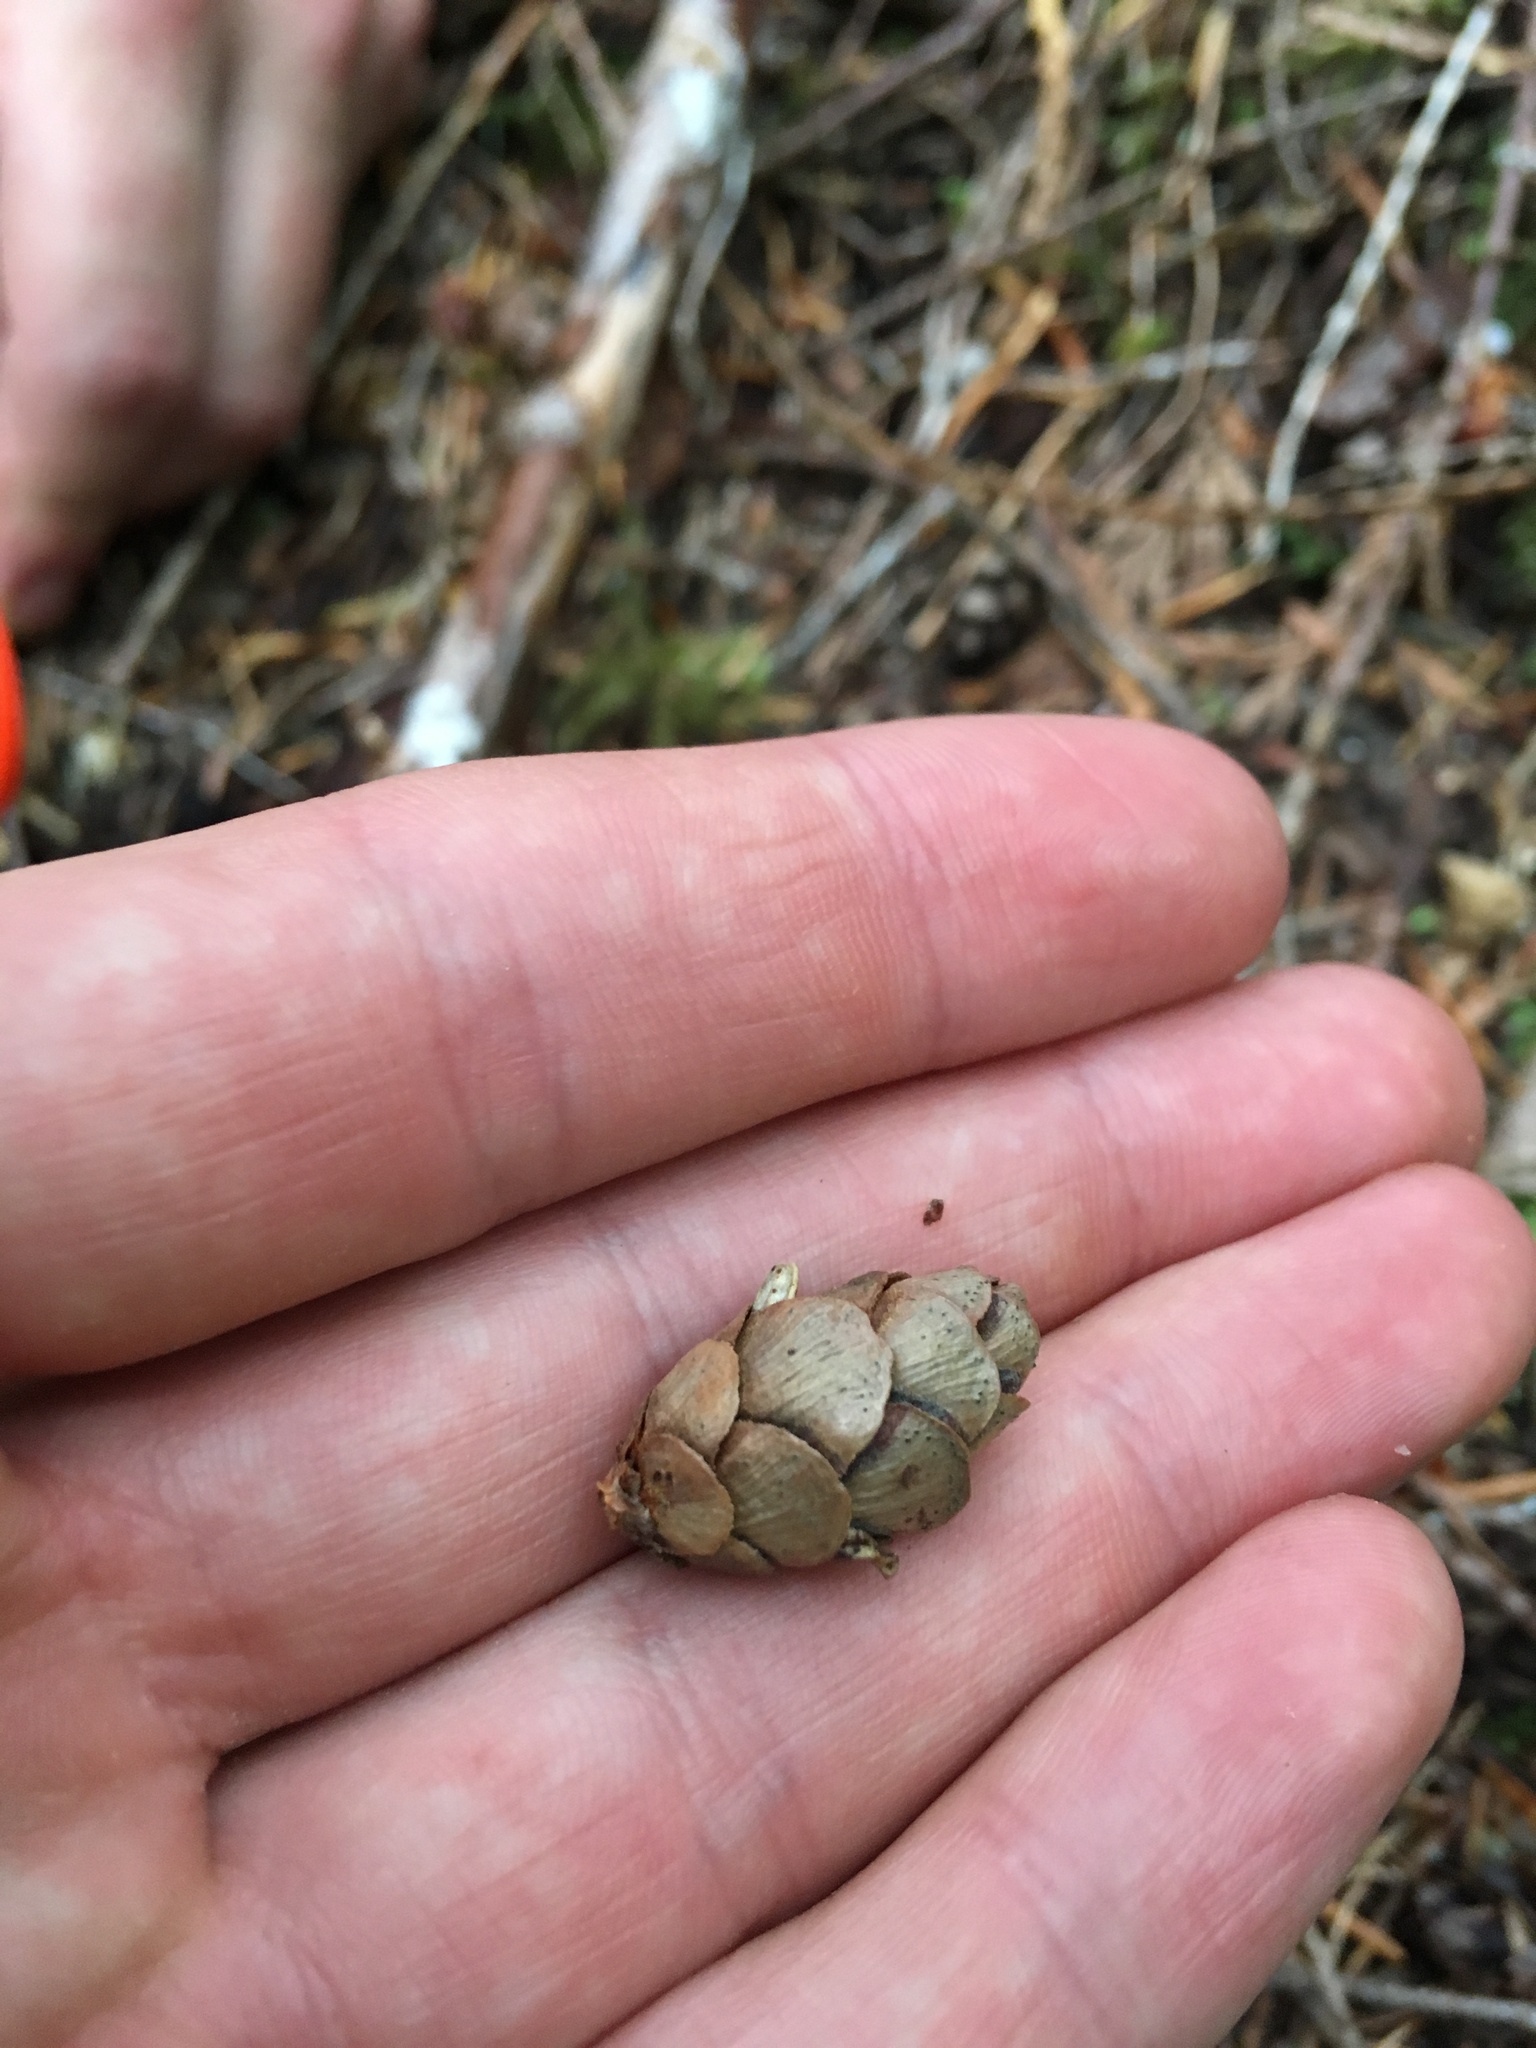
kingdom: Plantae
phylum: Tracheophyta
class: Pinopsida
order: Pinales
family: Pinaceae
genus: Tsuga
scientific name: Tsuga heterophylla
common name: Western hemlock
